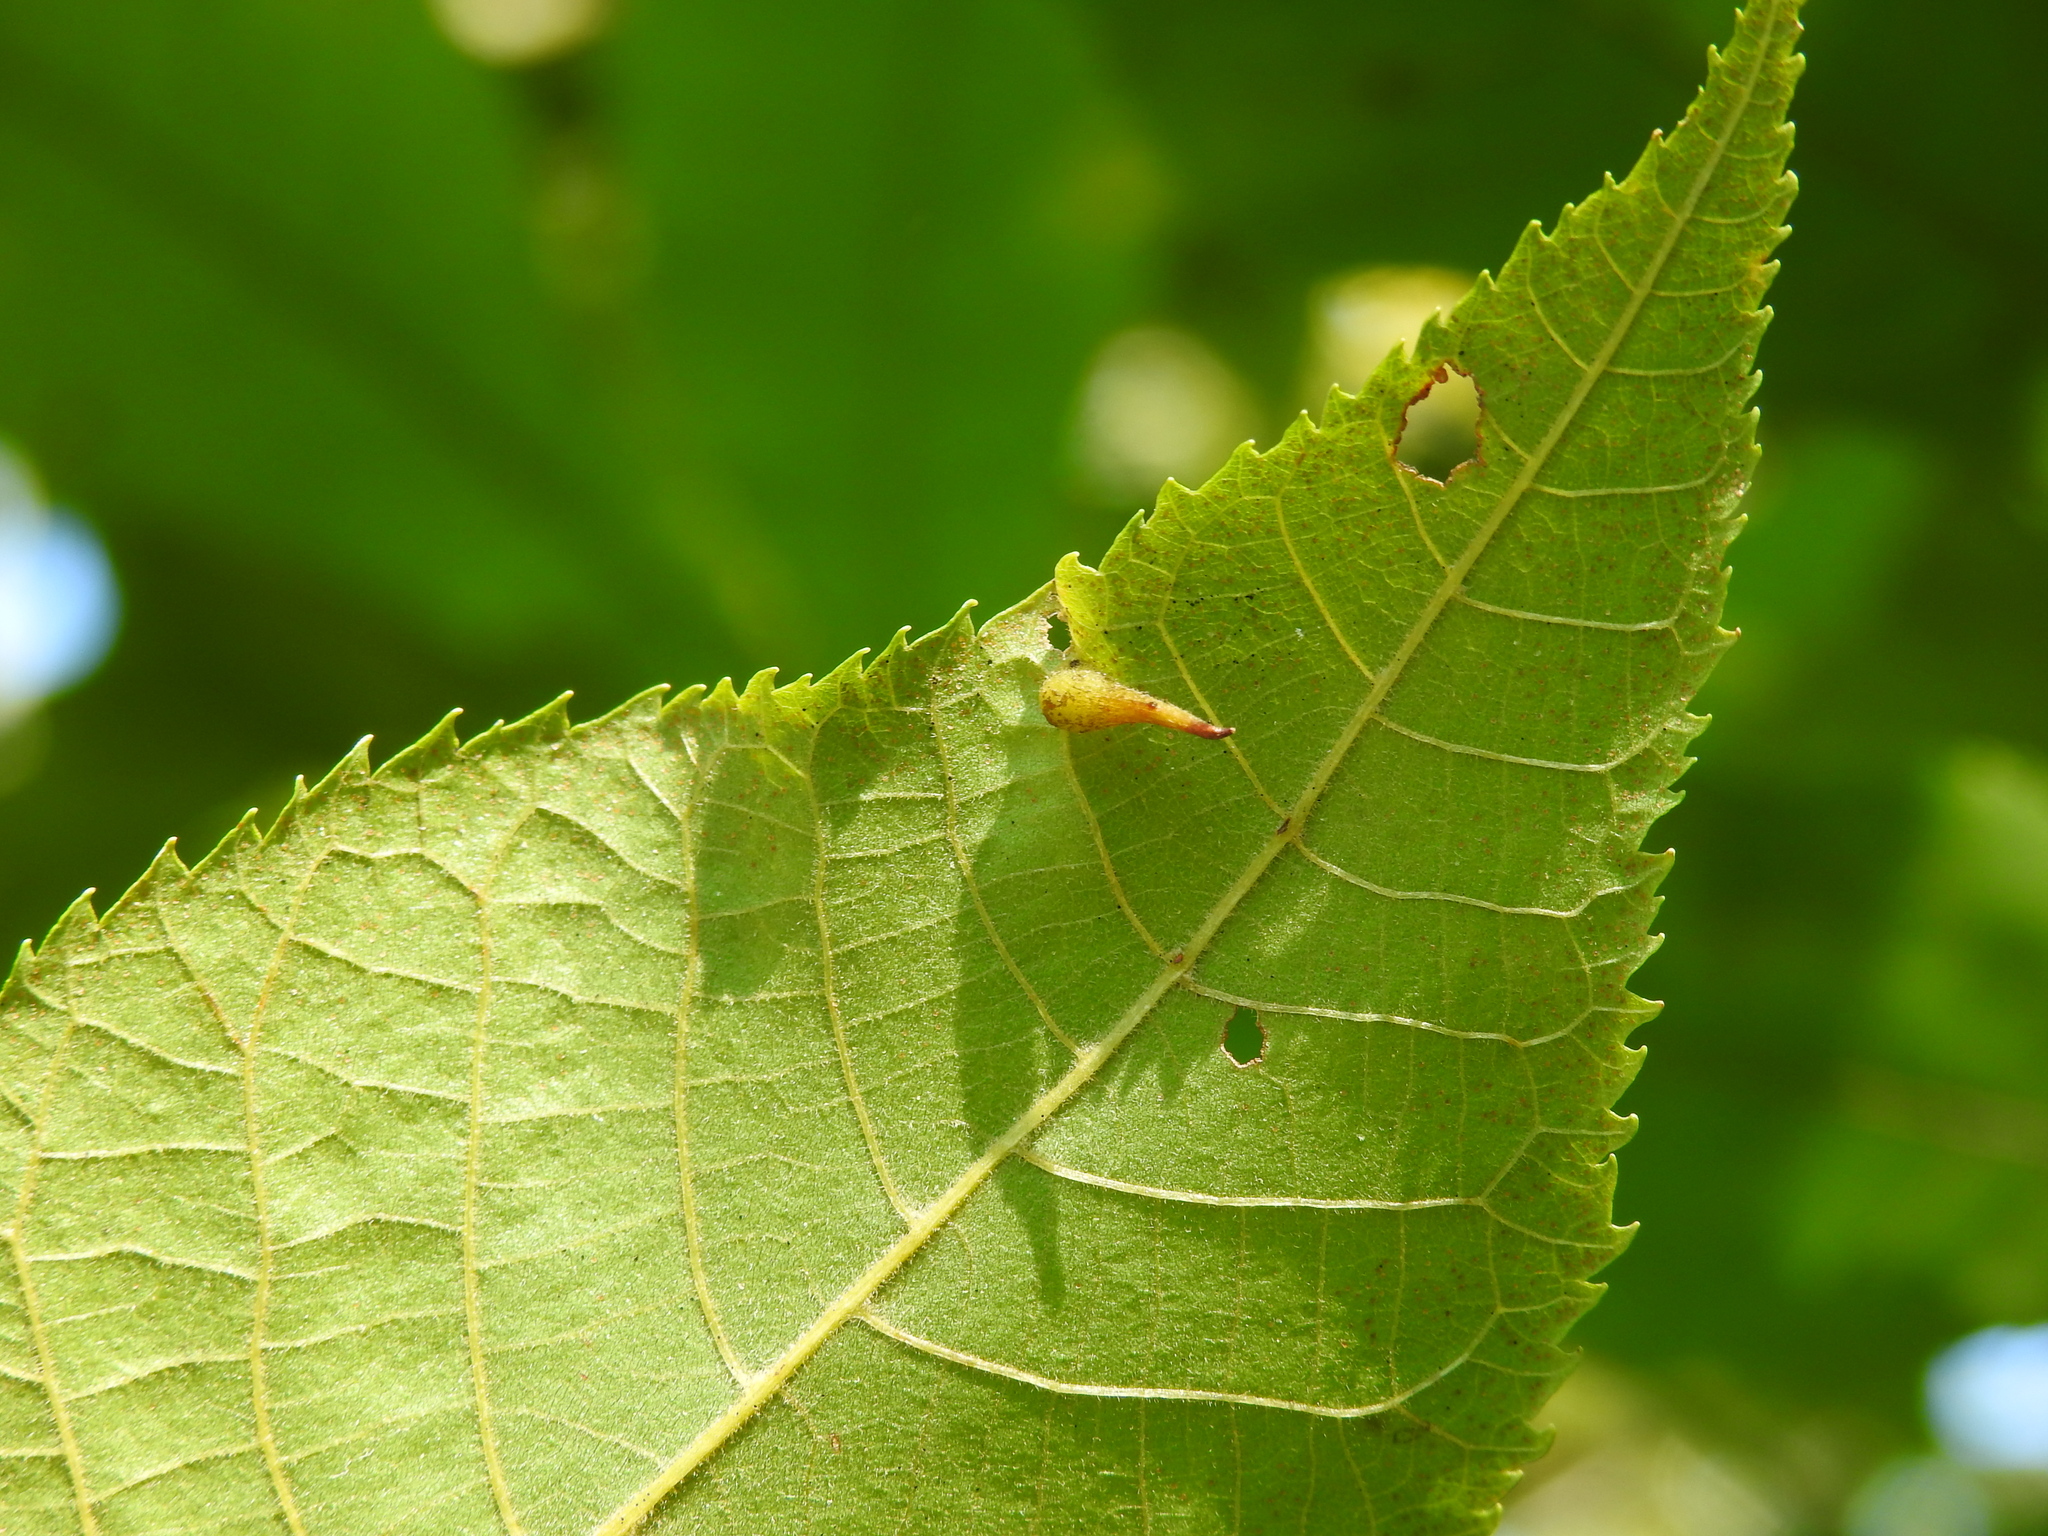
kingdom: Animalia
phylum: Arthropoda
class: Insecta
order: Diptera
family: Cecidomyiidae
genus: Caryomyia
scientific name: Caryomyia spinulosa
